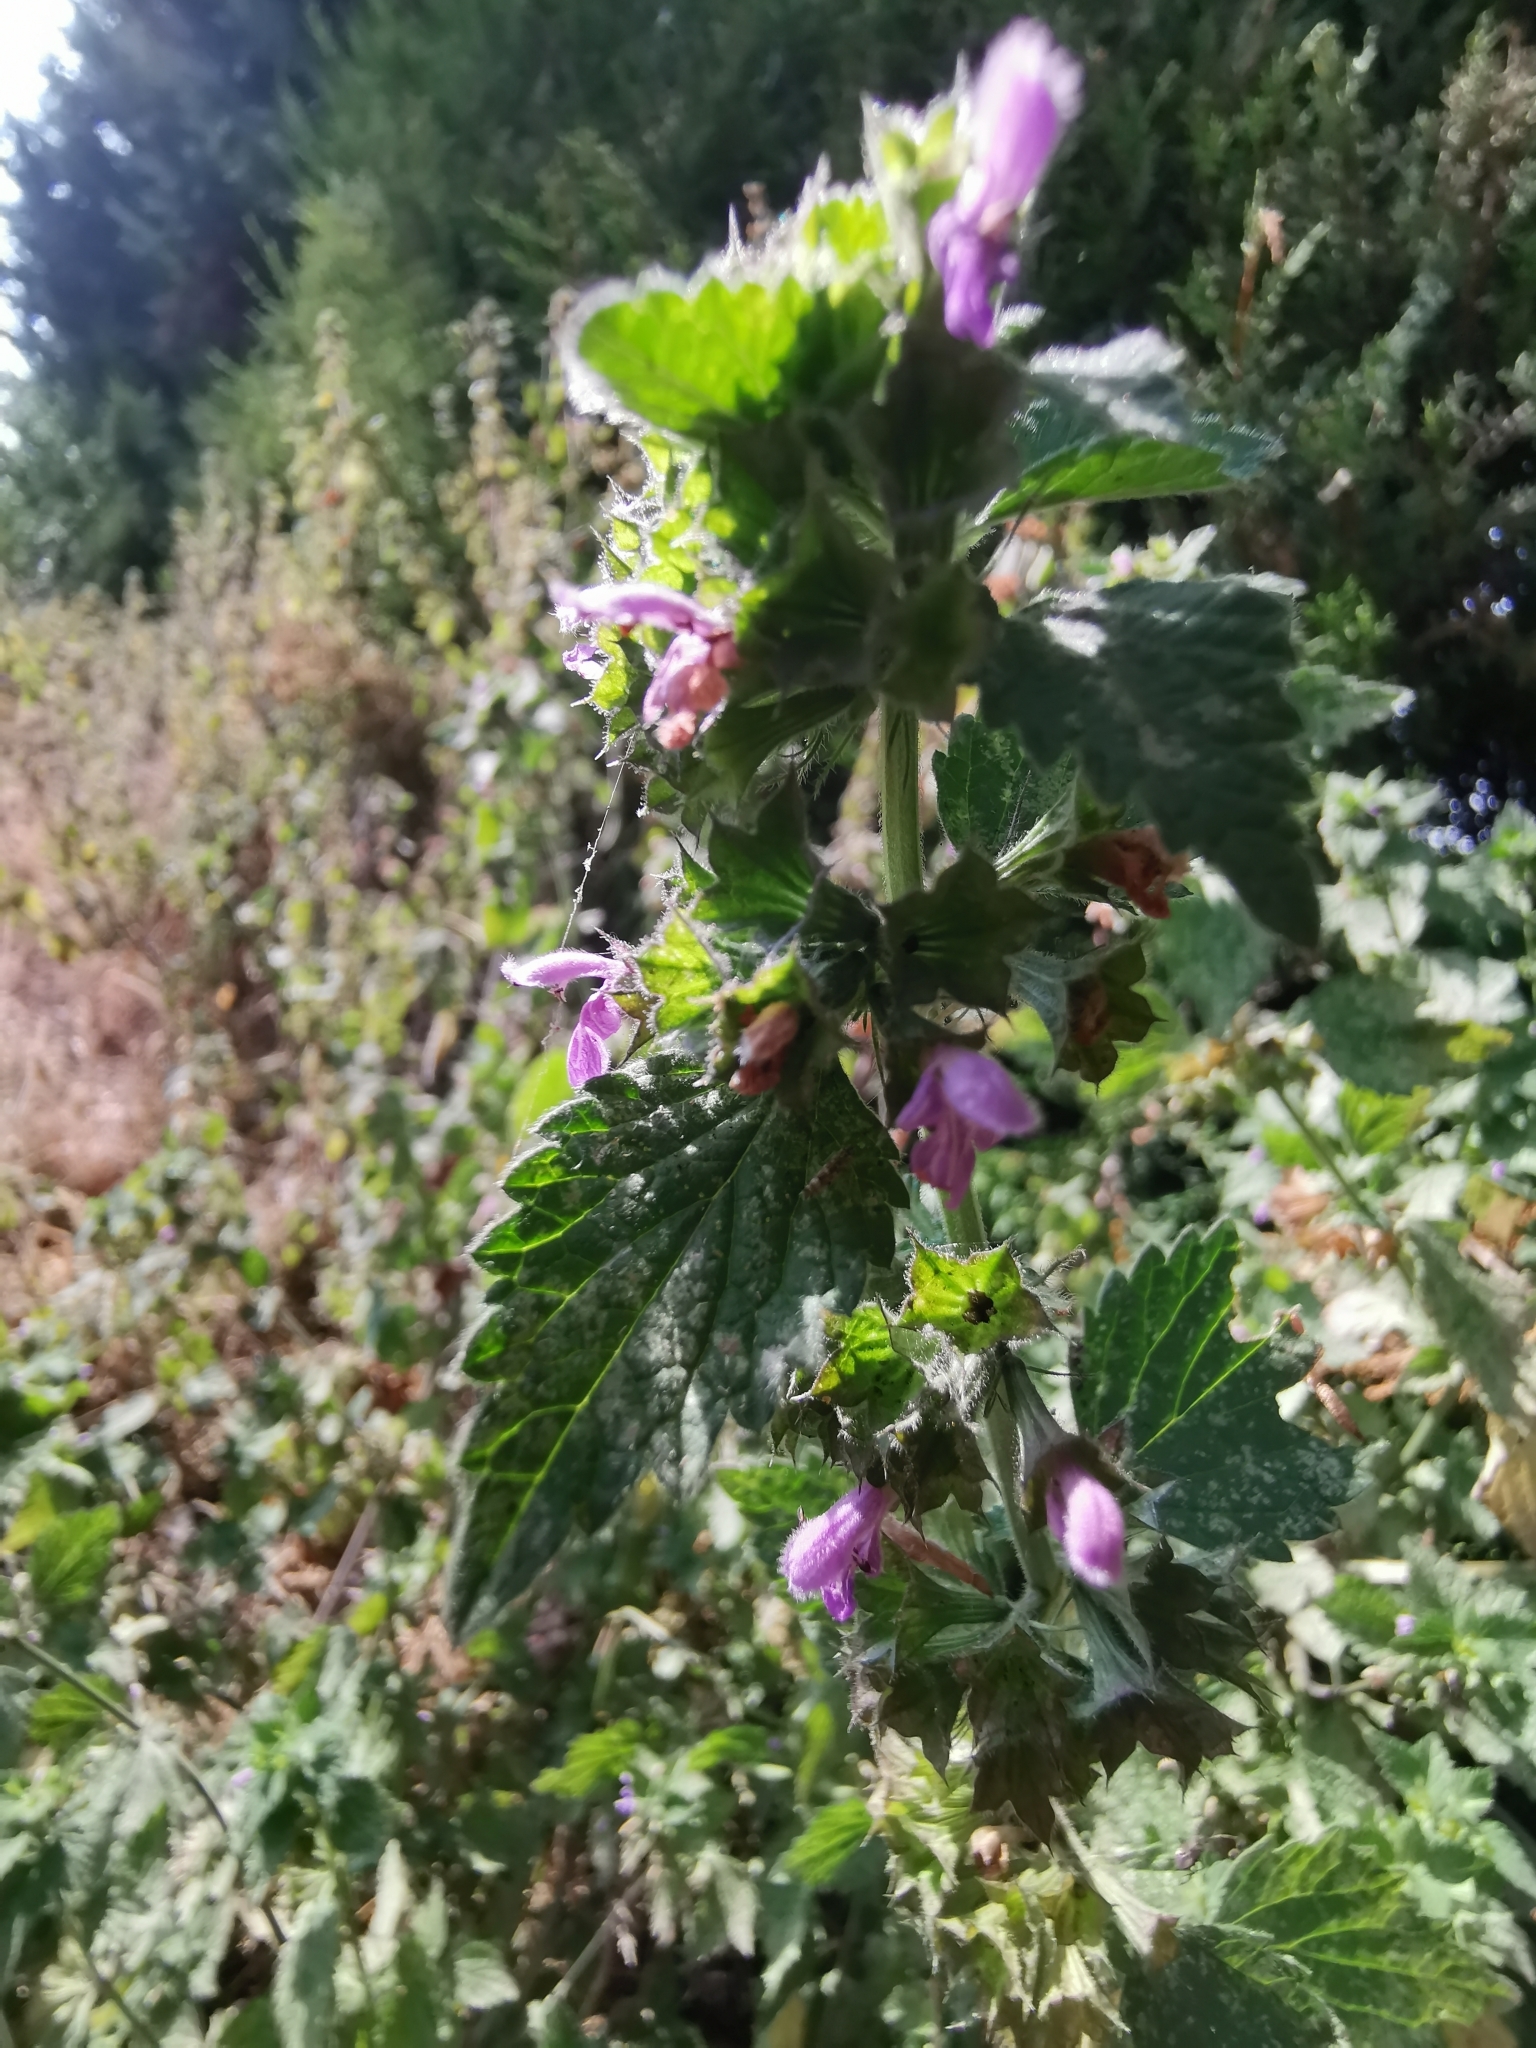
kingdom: Plantae
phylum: Tracheophyta
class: Magnoliopsida
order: Lamiales
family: Lamiaceae
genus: Ballota
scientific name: Ballota nigra
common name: Black horehound
